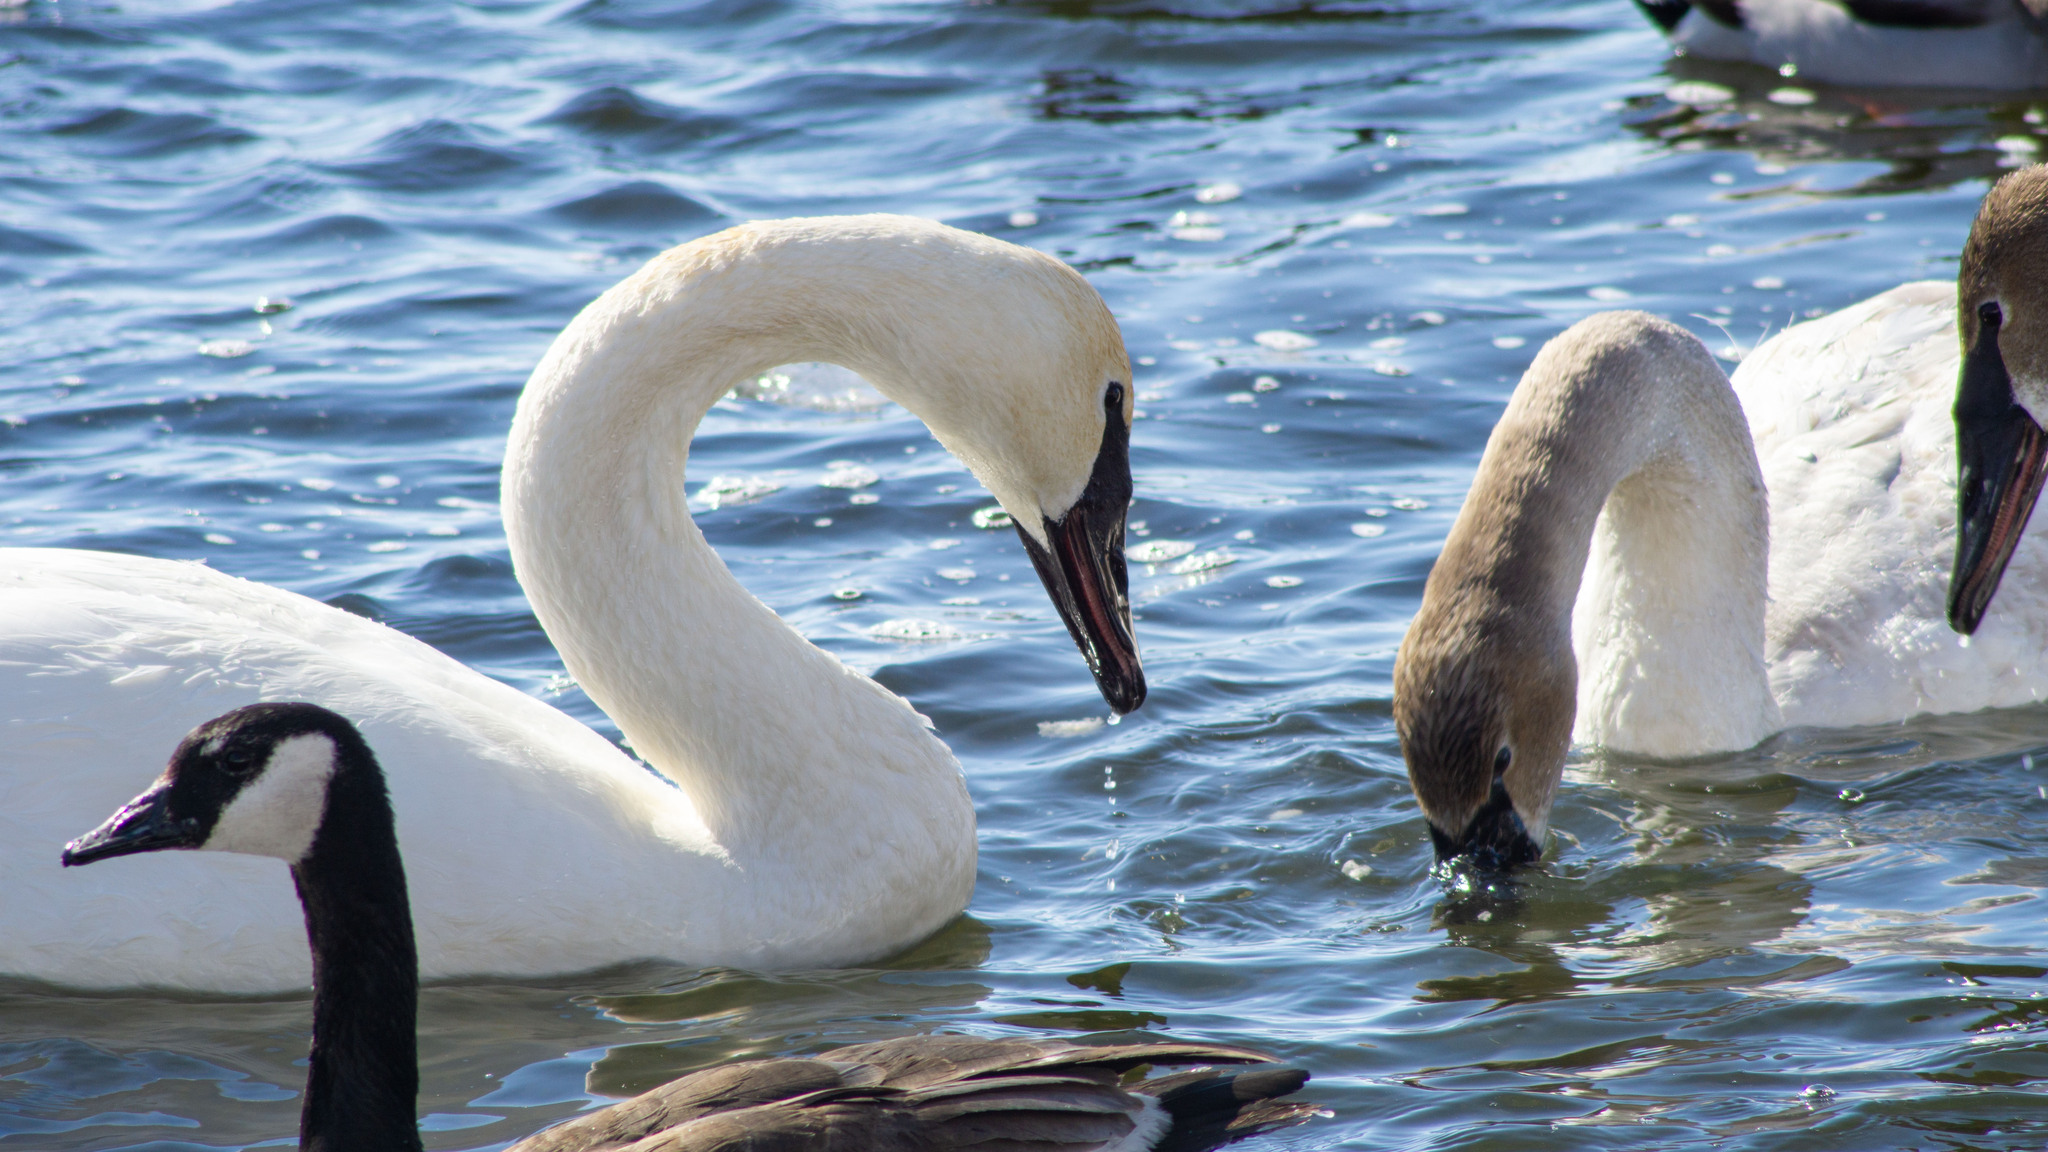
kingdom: Animalia
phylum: Chordata
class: Aves
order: Anseriformes
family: Anatidae
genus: Cygnus
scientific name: Cygnus buccinator
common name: Trumpeter swan
